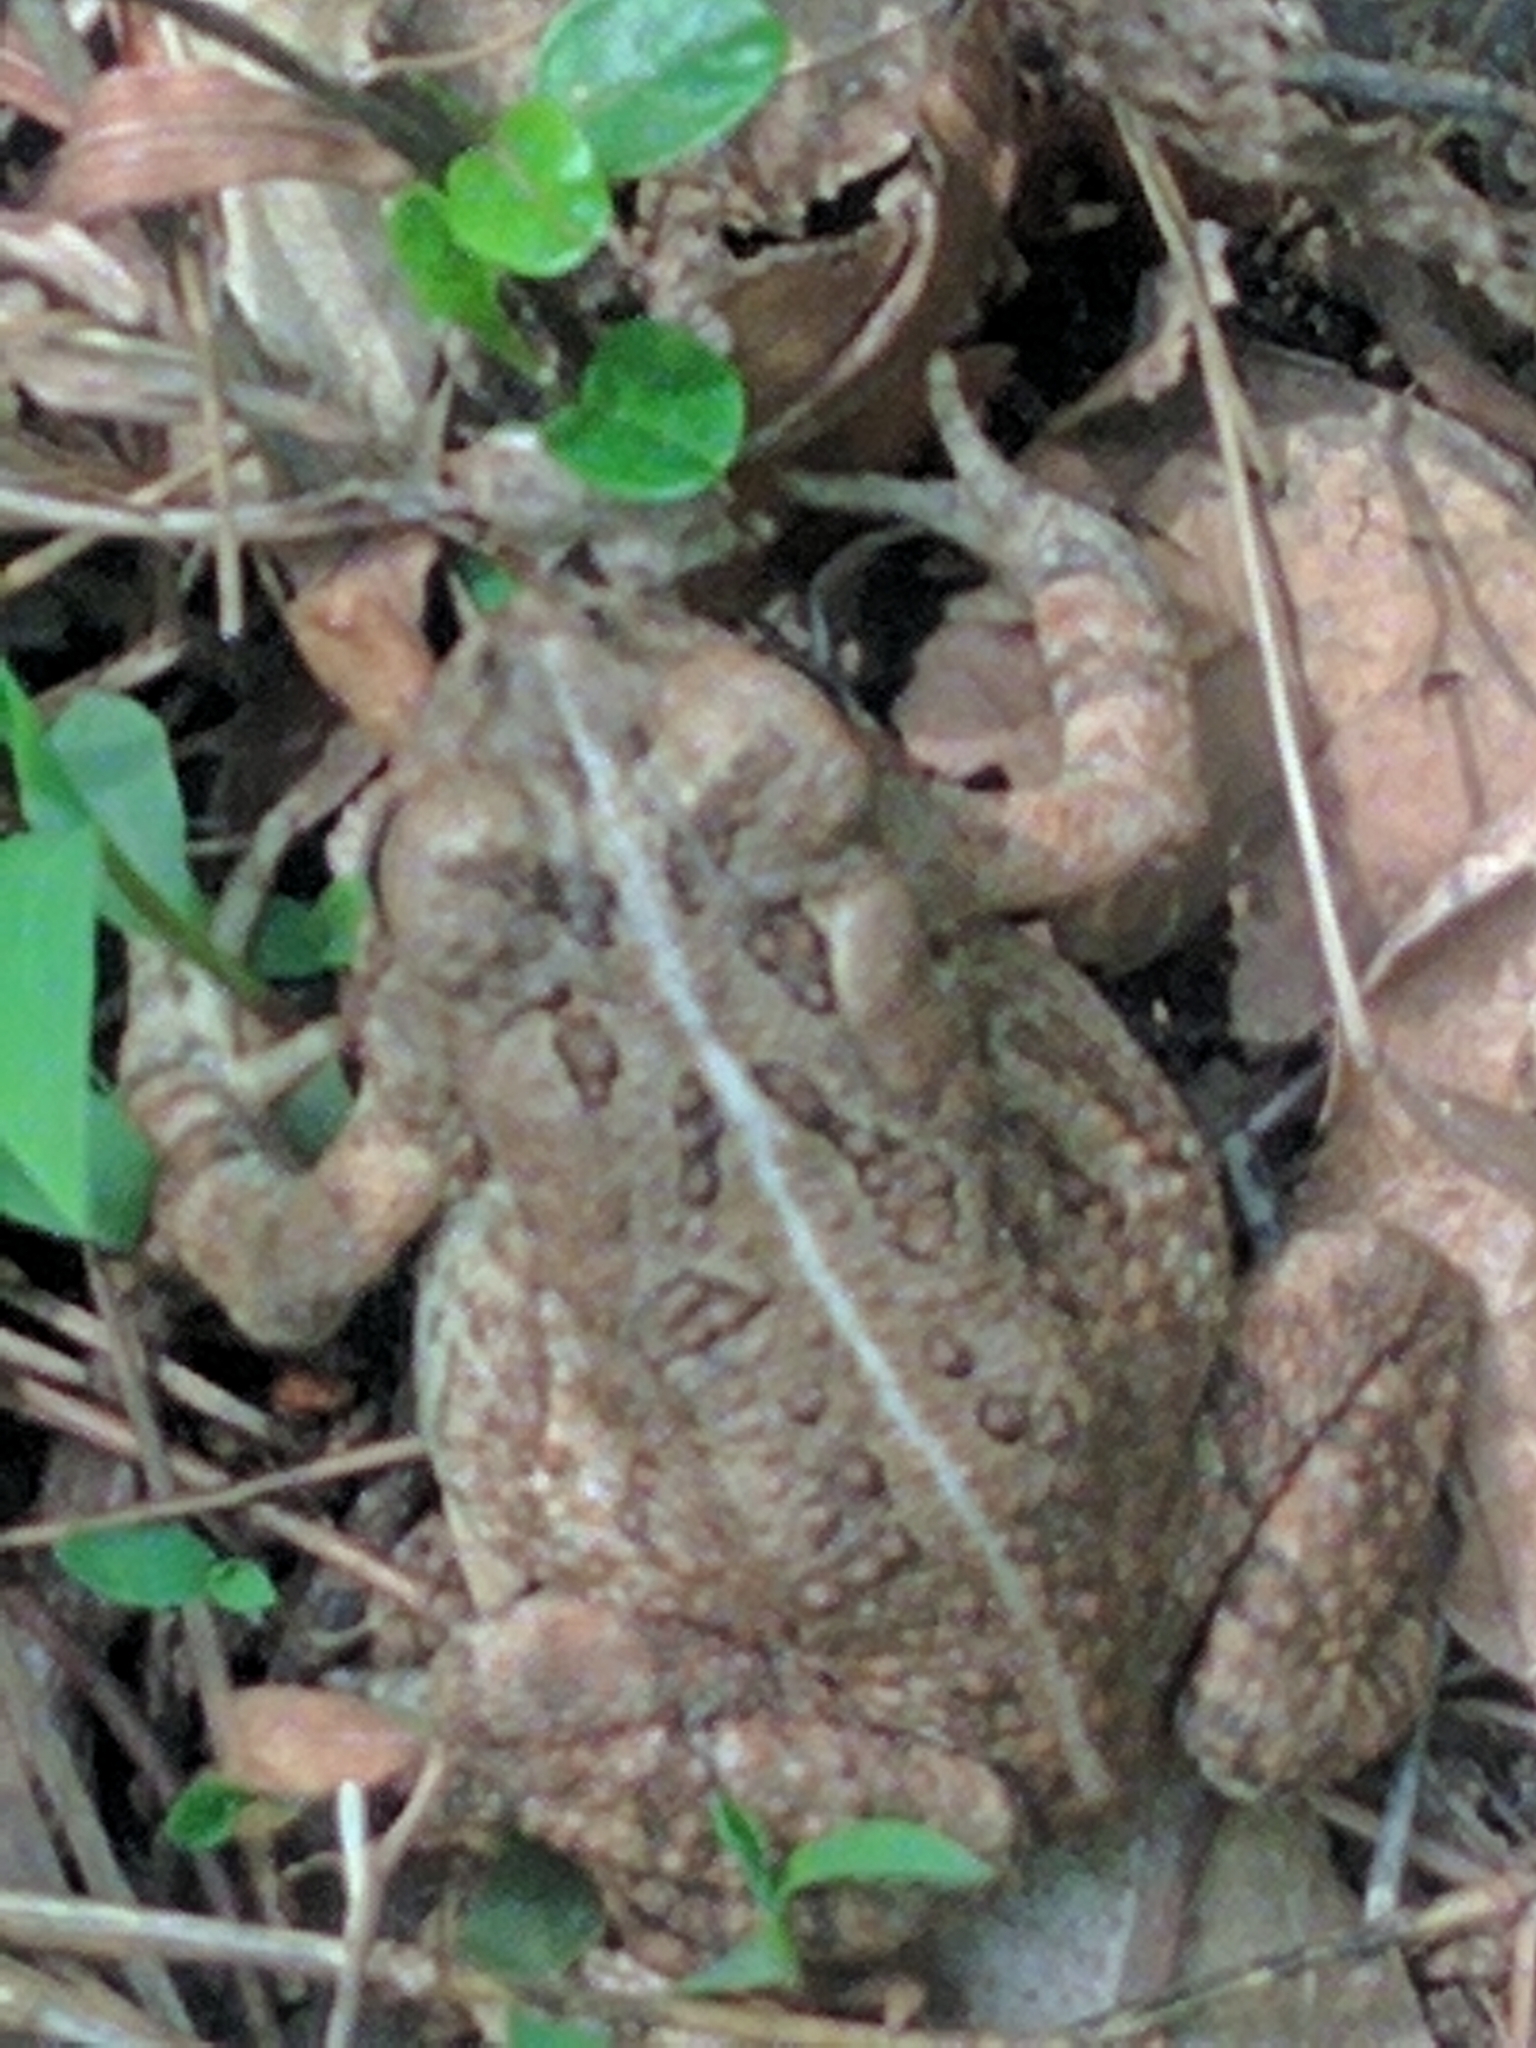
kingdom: Animalia
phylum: Chordata
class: Amphibia
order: Anura
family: Bufonidae
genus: Anaxyrus
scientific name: Anaxyrus fowleri
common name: Fowler's toad
